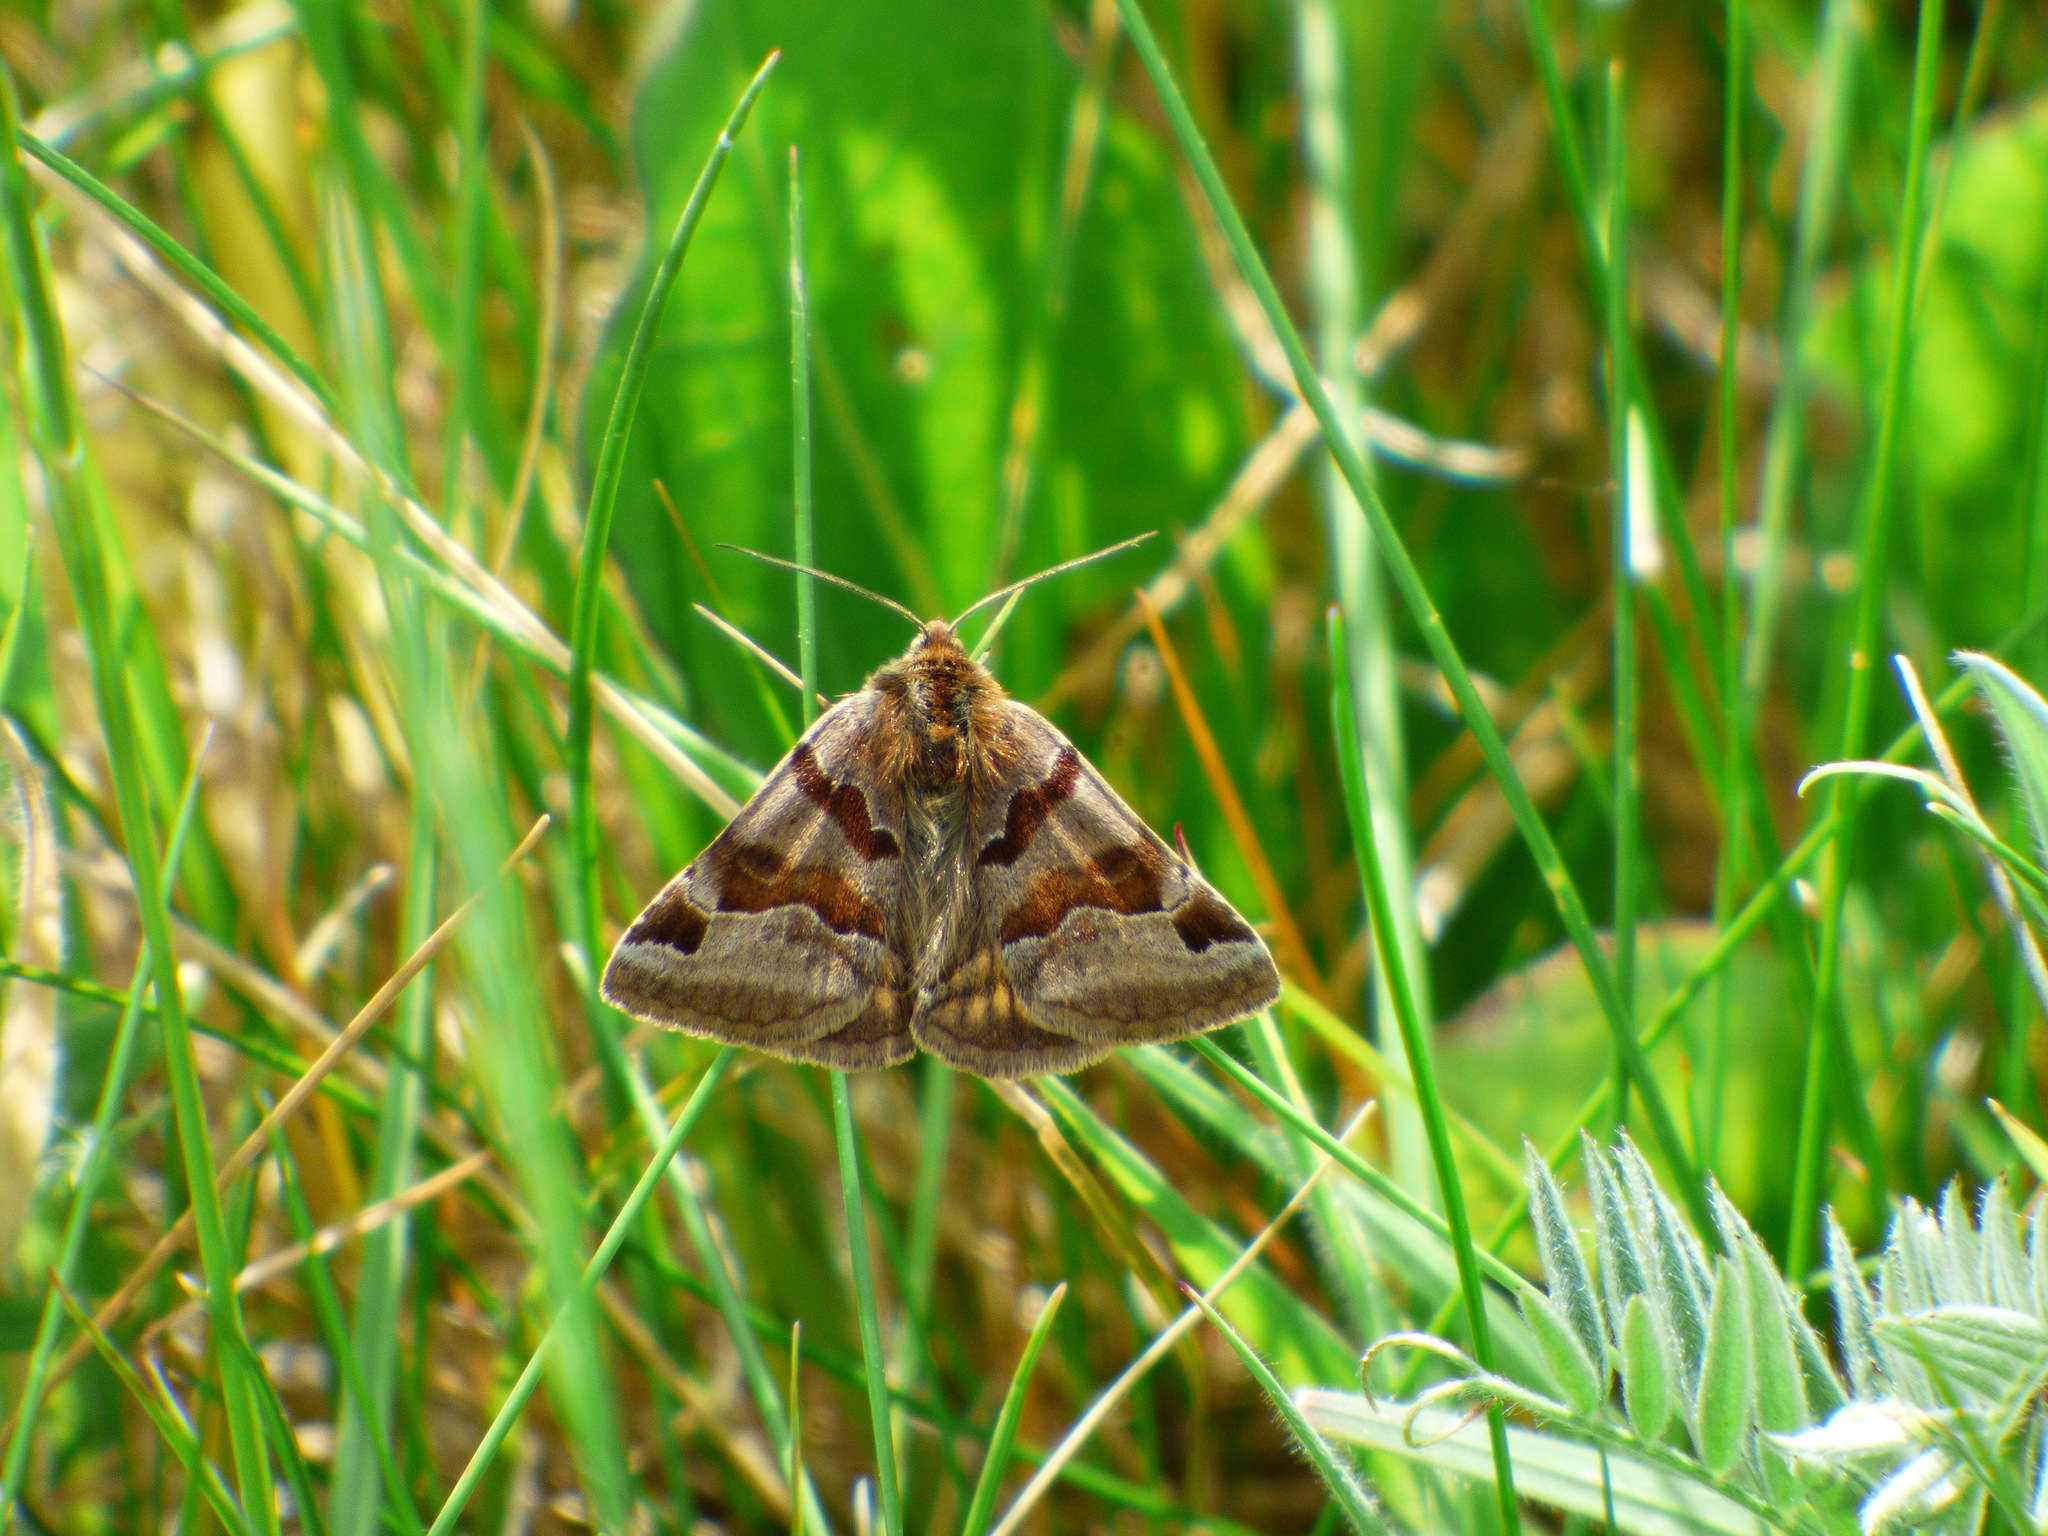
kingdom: Animalia
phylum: Arthropoda
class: Insecta
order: Lepidoptera
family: Erebidae
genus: Euclidia
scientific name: Euclidia glyphica
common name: Burnet companion
